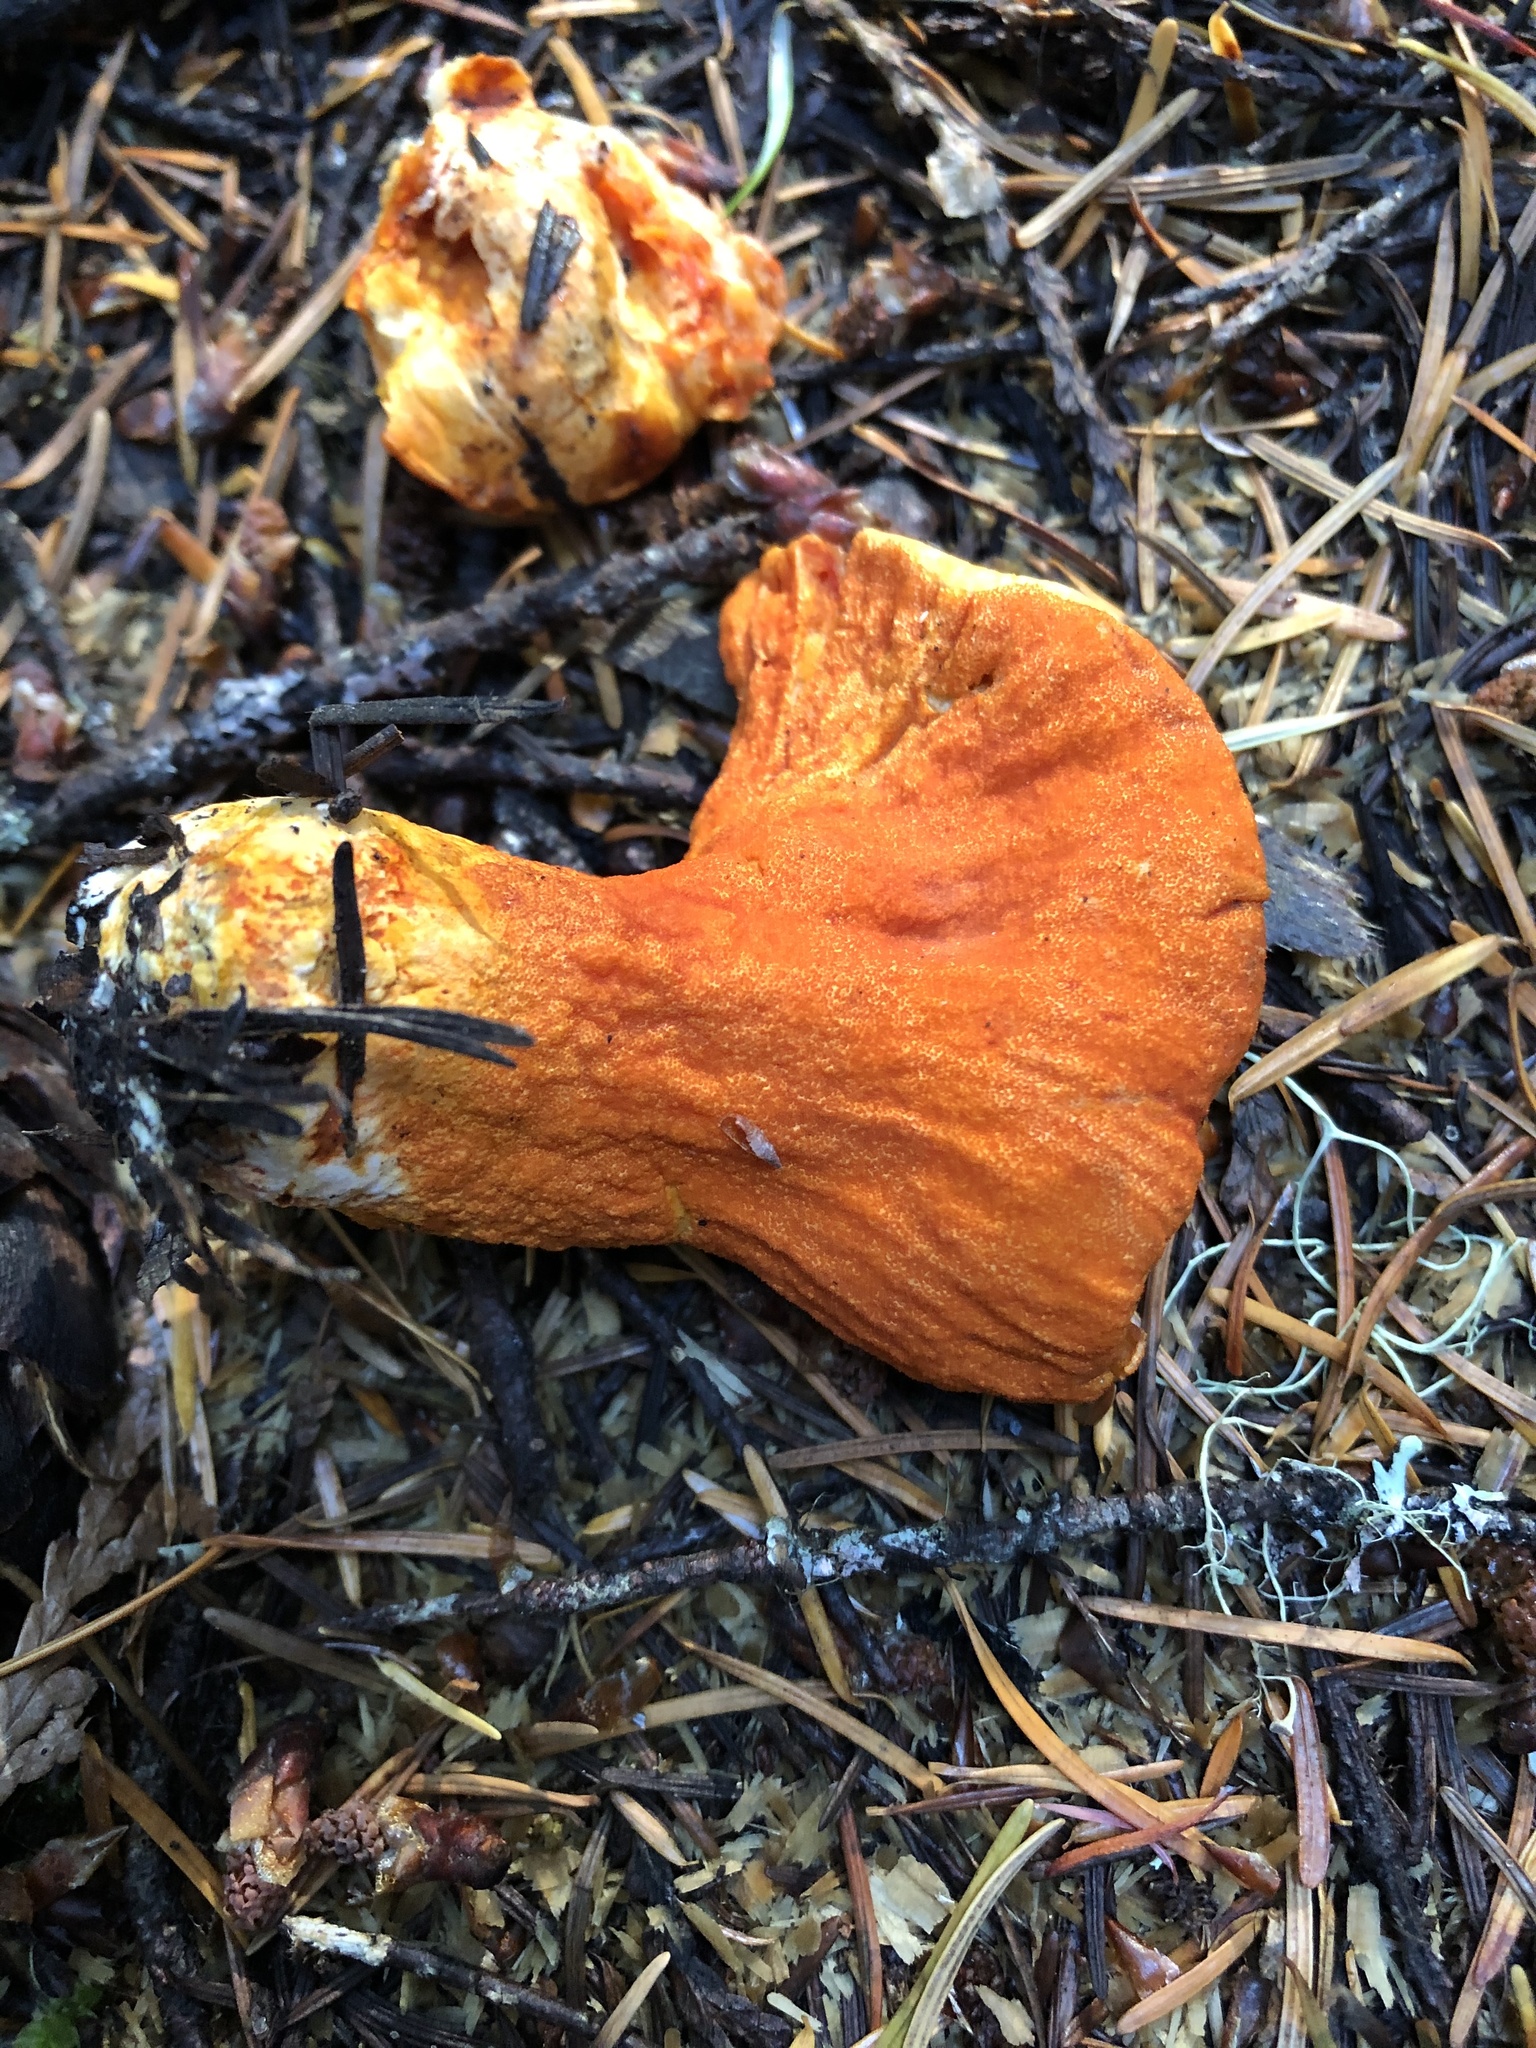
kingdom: Fungi
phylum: Ascomycota
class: Sordariomycetes
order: Hypocreales
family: Hypocreaceae
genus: Hypomyces
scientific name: Hypomyces lactifluorum
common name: Lobster mushroom
